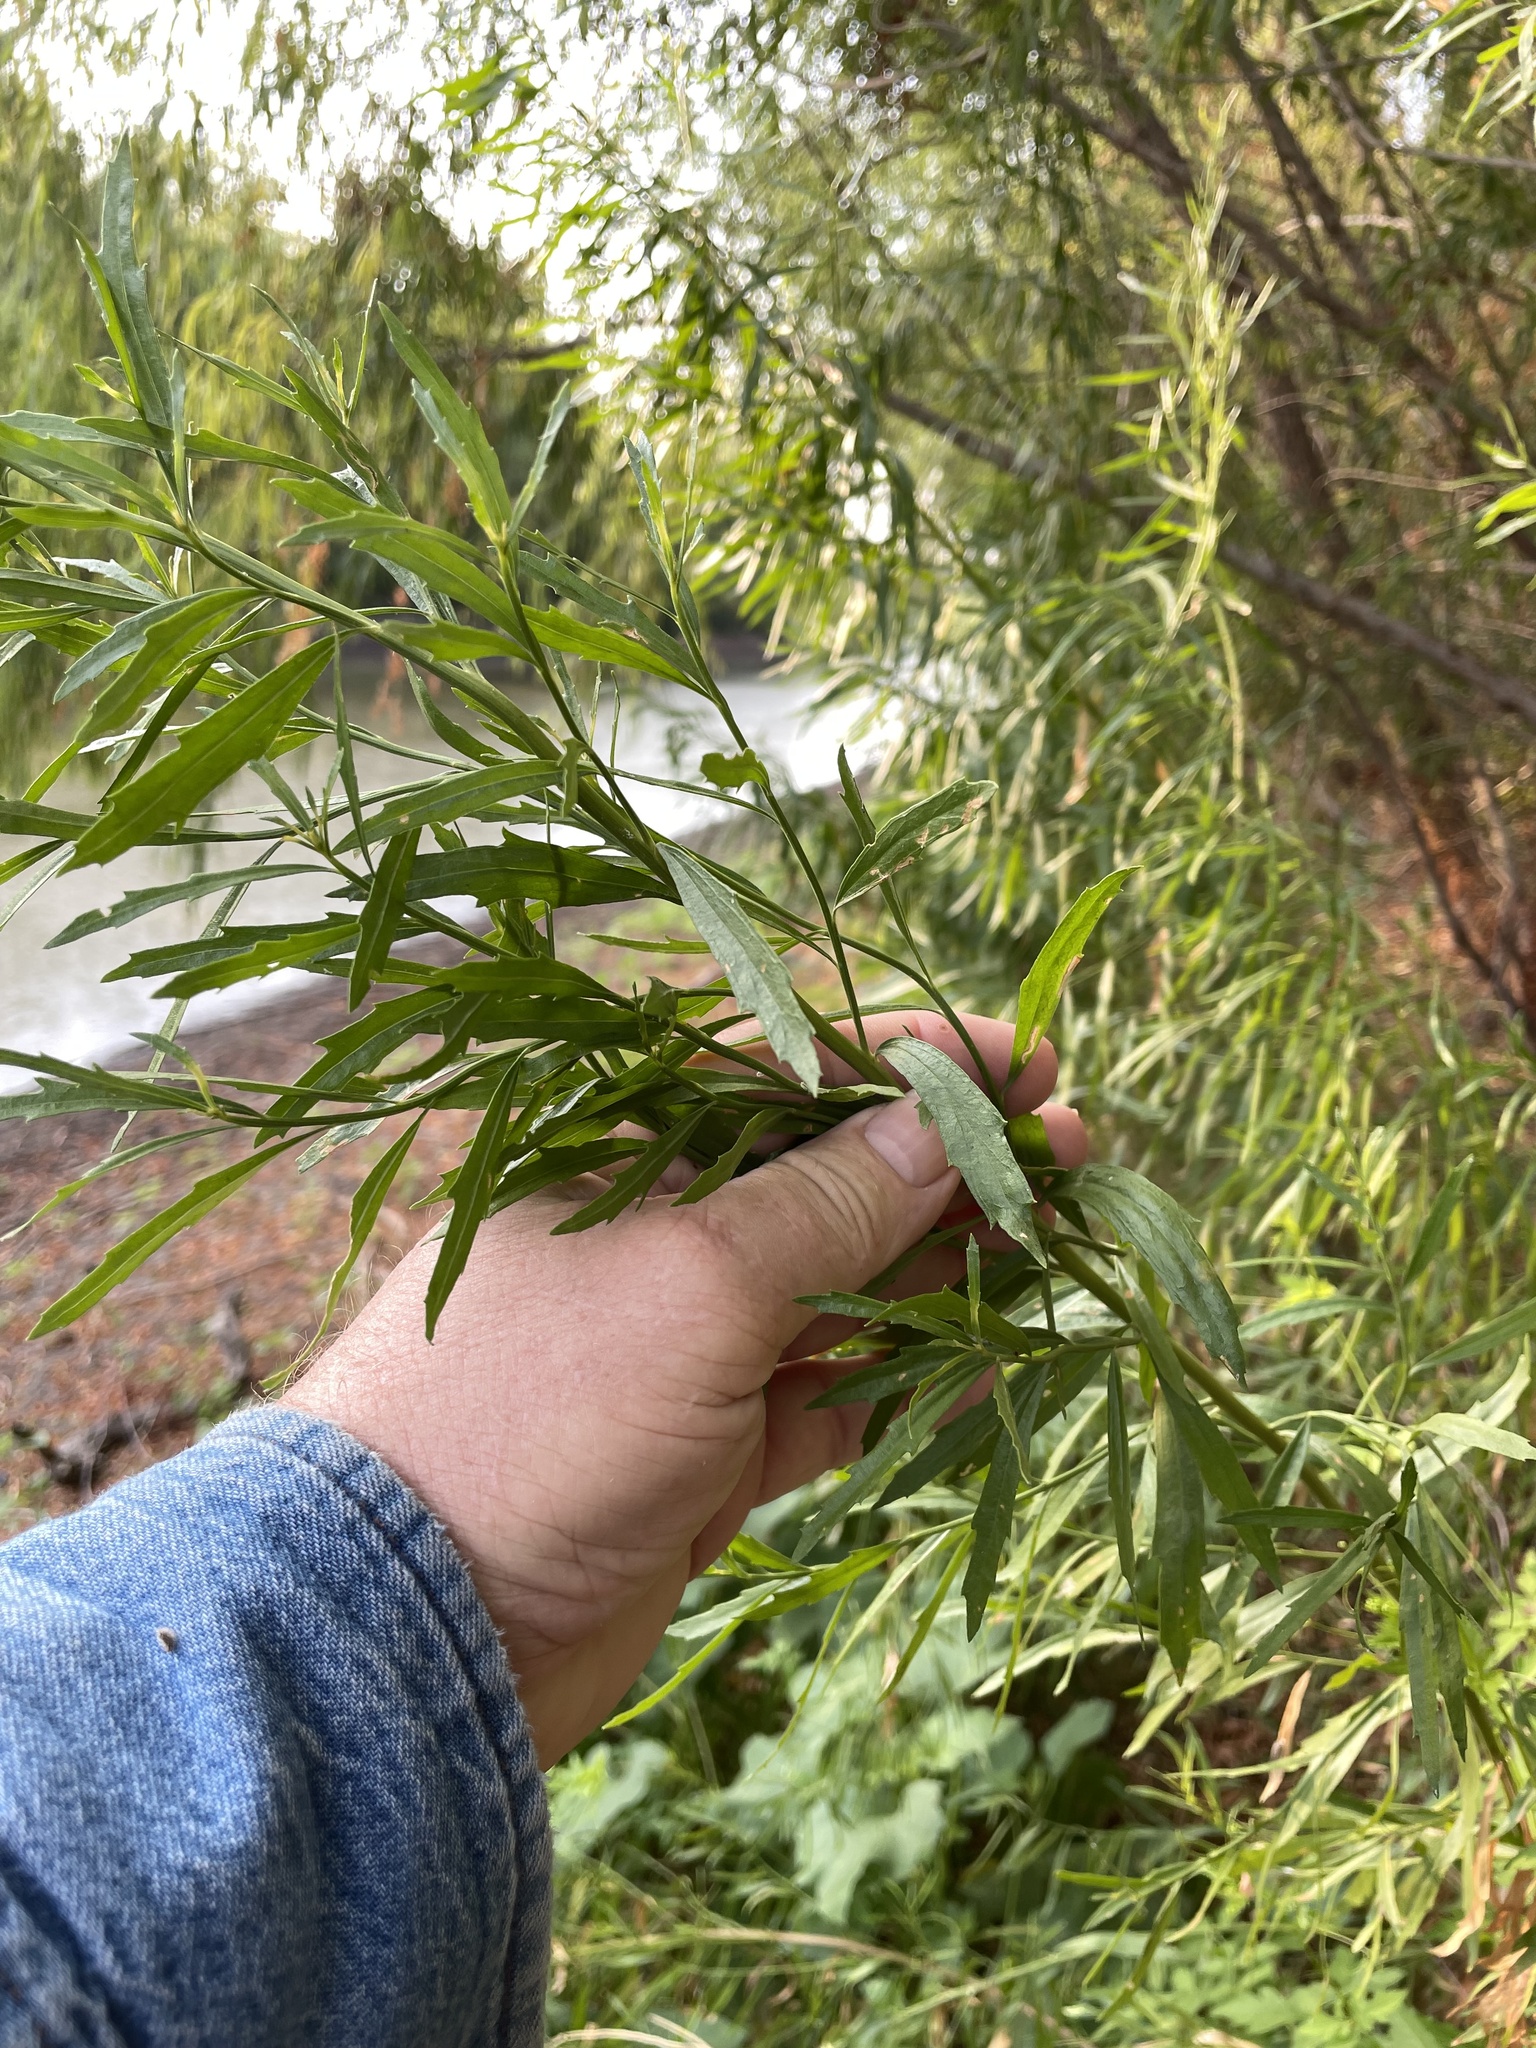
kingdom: Plantae
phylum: Tracheophyta
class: Magnoliopsida
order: Asterales
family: Asteraceae
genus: Baccharis
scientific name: Baccharis neglecta
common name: Roosevelt-weed
